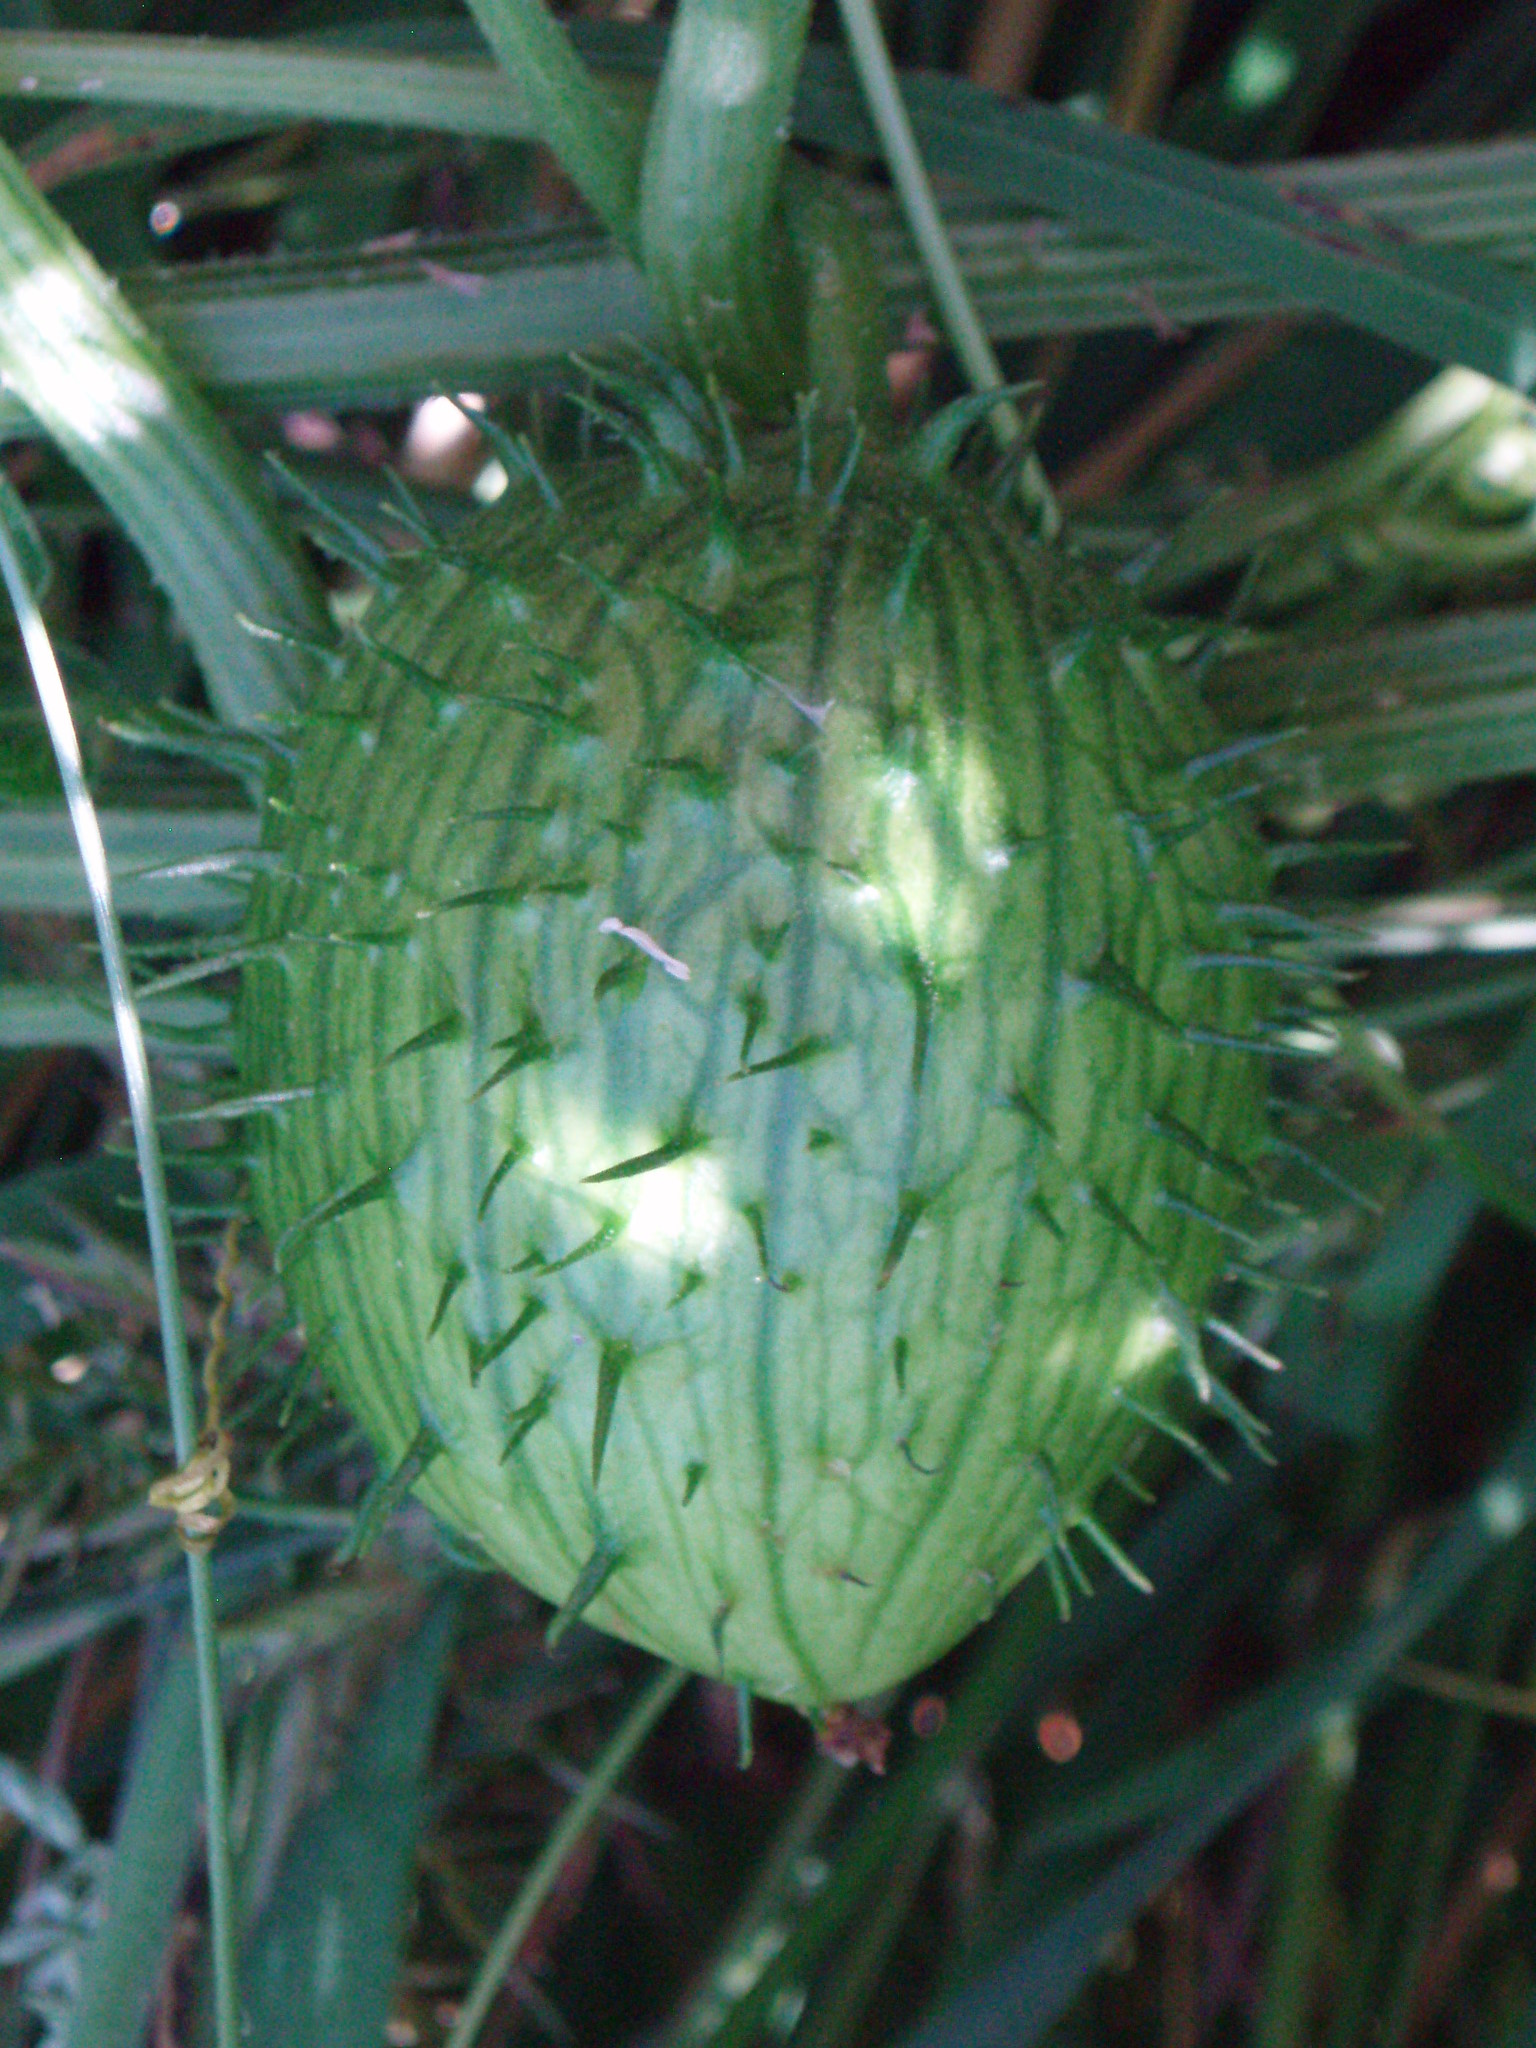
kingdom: Plantae
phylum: Tracheophyta
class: Magnoliopsida
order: Cucurbitales
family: Cucurbitaceae
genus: Marah
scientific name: Marah oregana
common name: Coastal manroot
